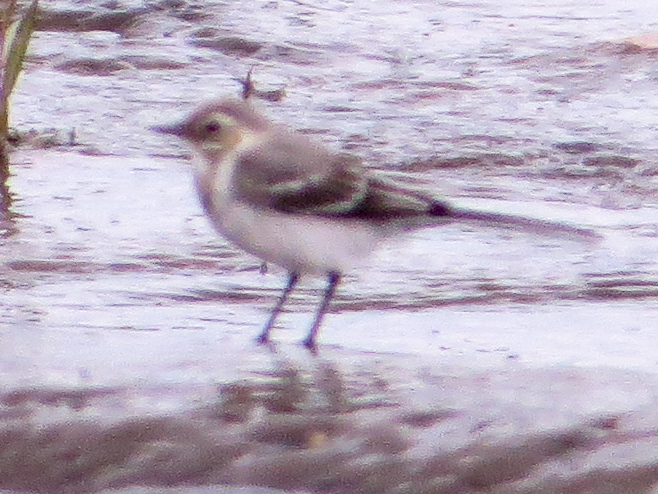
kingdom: Animalia
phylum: Chordata
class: Aves
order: Passeriformes
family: Motacillidae
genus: Motacilla
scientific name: Motacilla alba
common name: White wagtail
